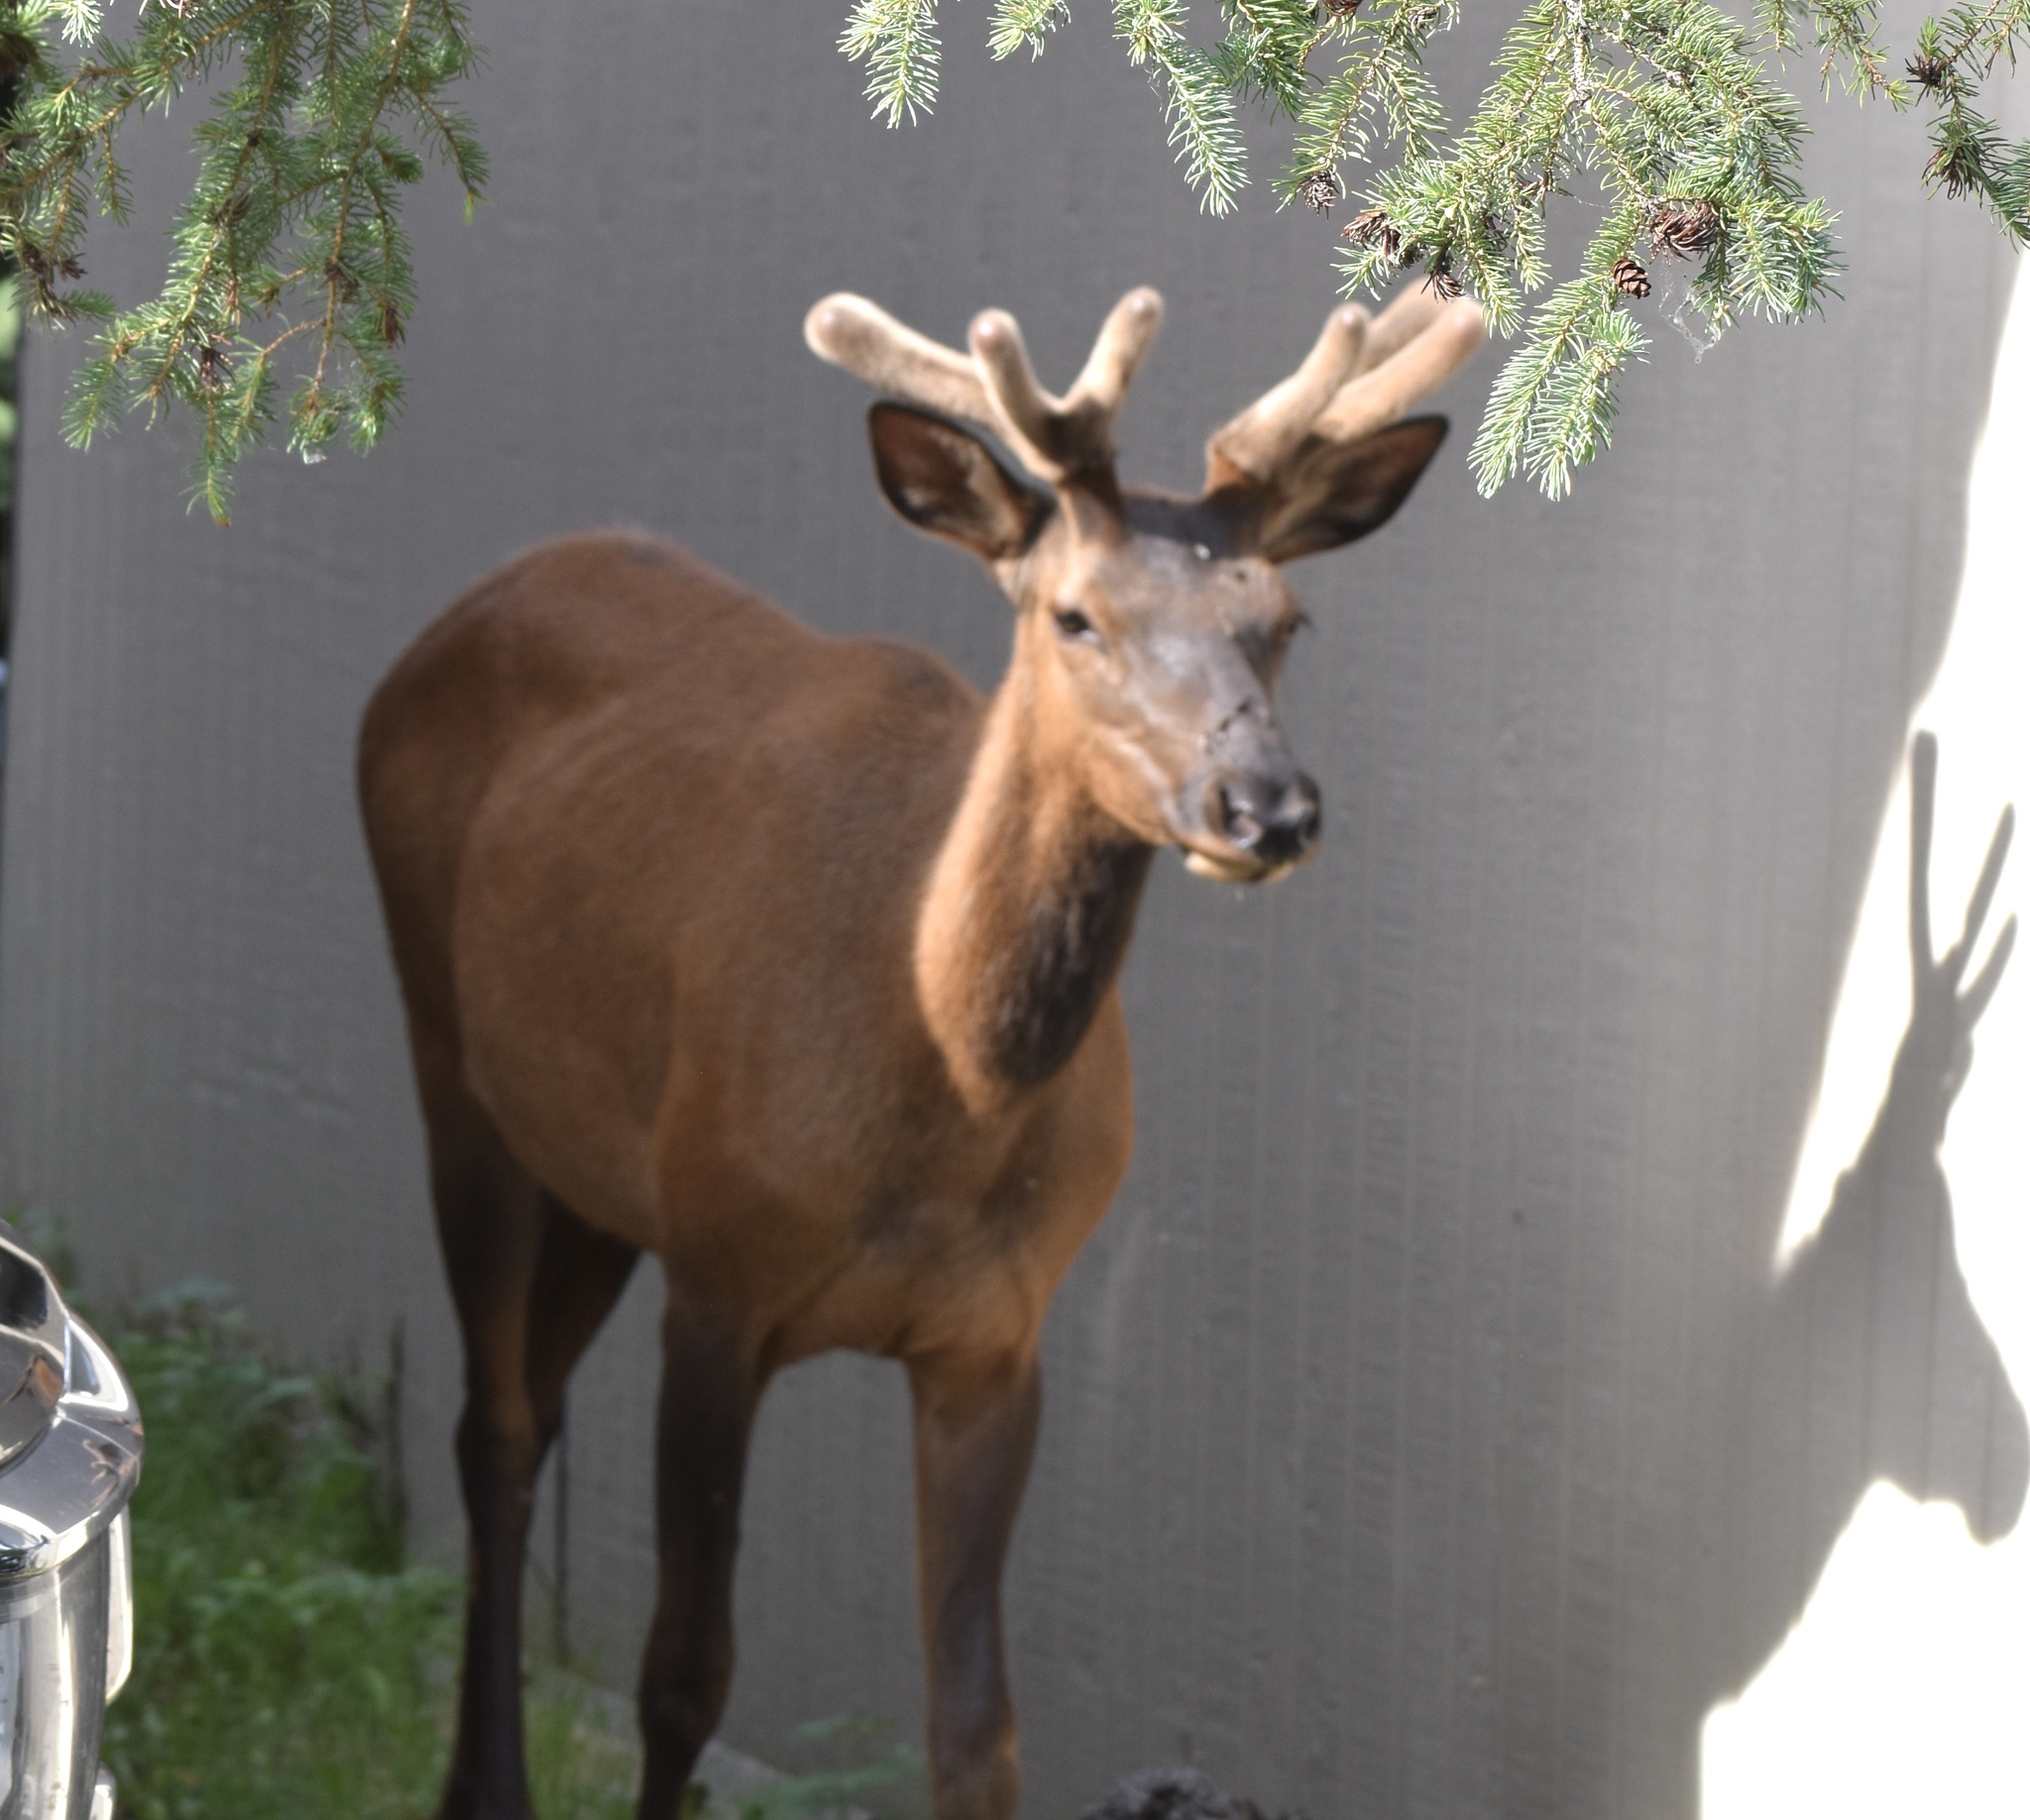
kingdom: Animalia
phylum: Chordata
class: Mammalia
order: Artiodactyla
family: Cervidae
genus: Cervus
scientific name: Cervus elaphus
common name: Red deer
